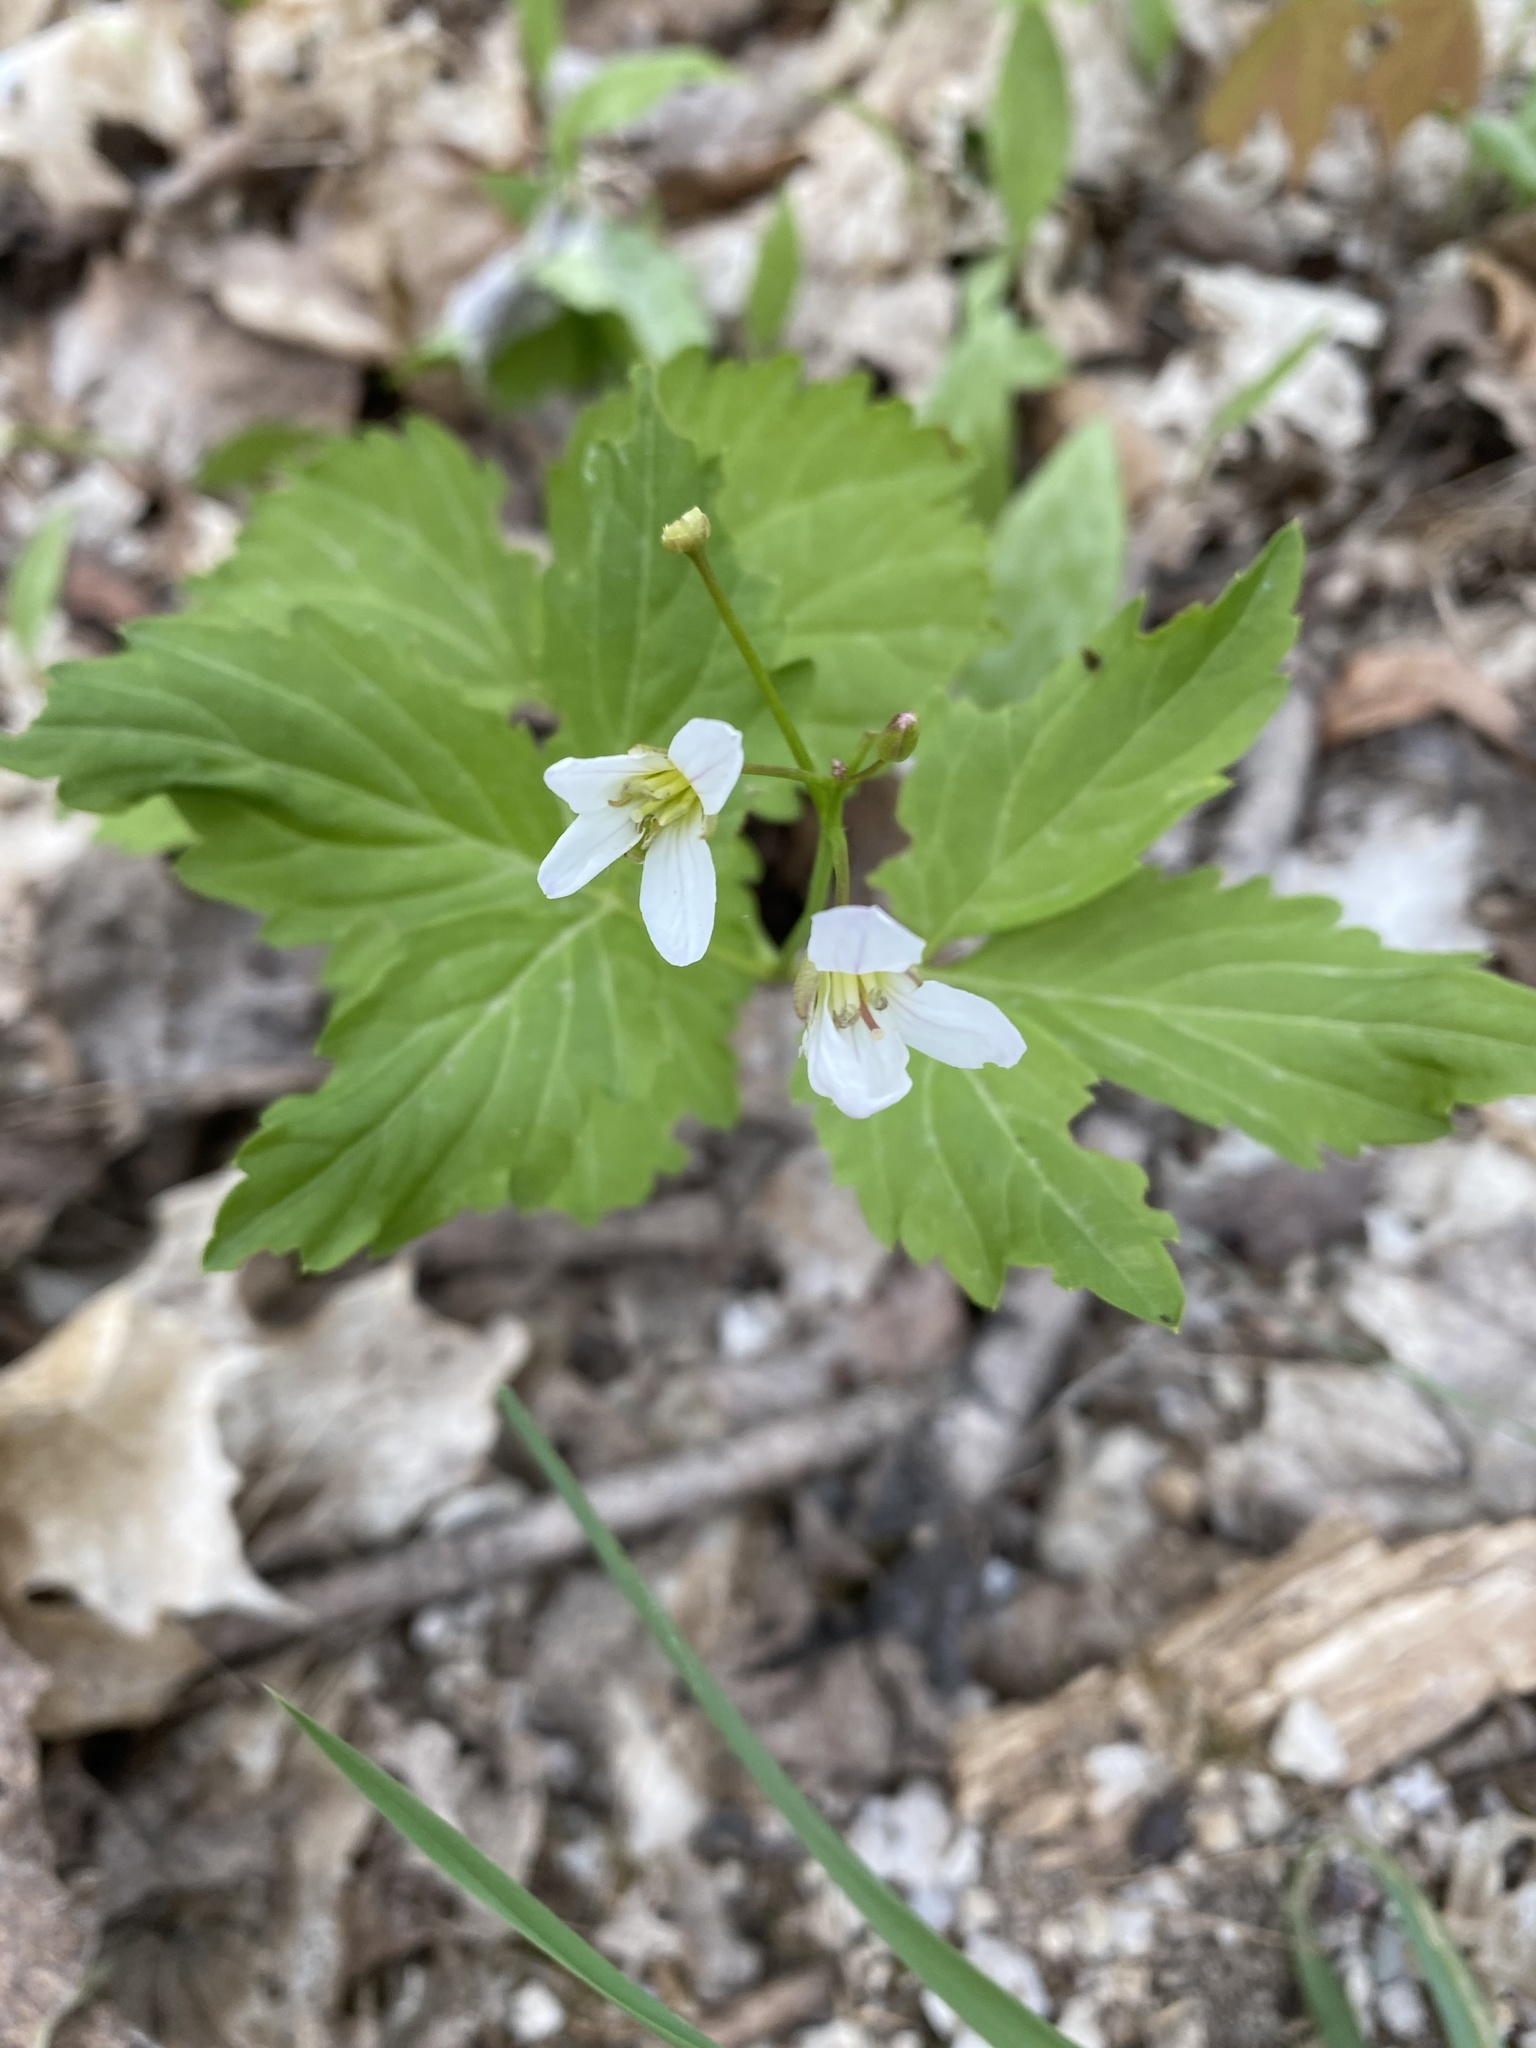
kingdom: Plantae
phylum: Tracheophyta
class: Magnoliopsida
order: Brassicales
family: Brassicaceae
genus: Cardamine
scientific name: Cardamine diphylla
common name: Broad-leaved toothwort
